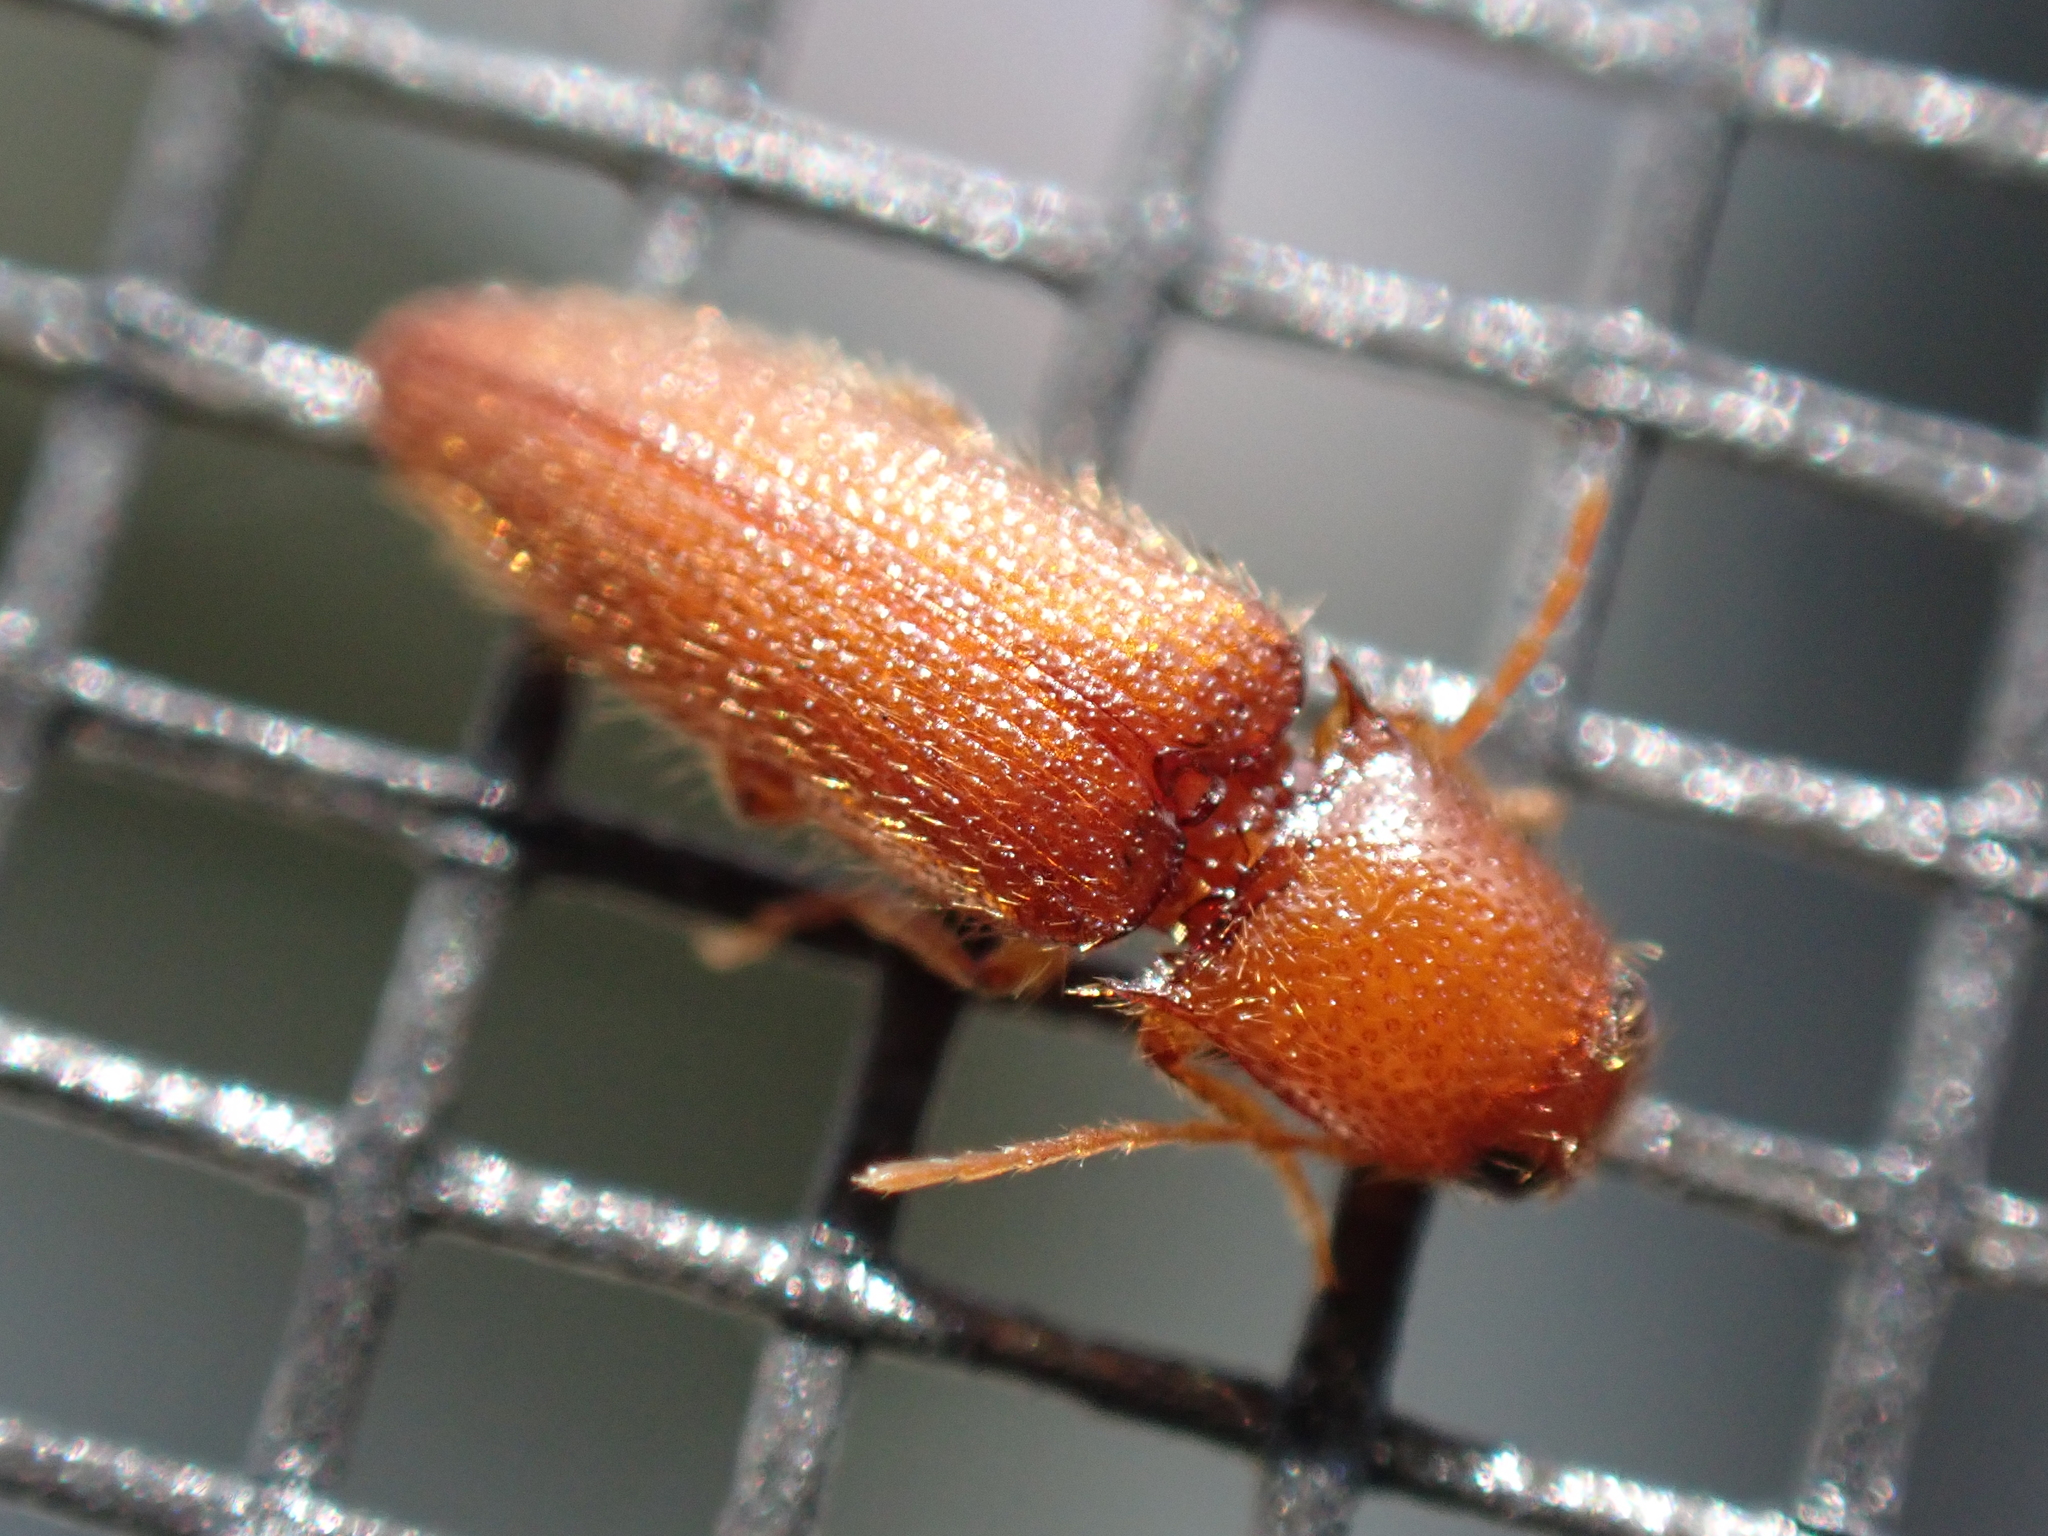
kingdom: Animalia
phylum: Arthropoda
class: Insecta
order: Coleoptera
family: Elateridae
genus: Dipropus
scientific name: Dipropus
